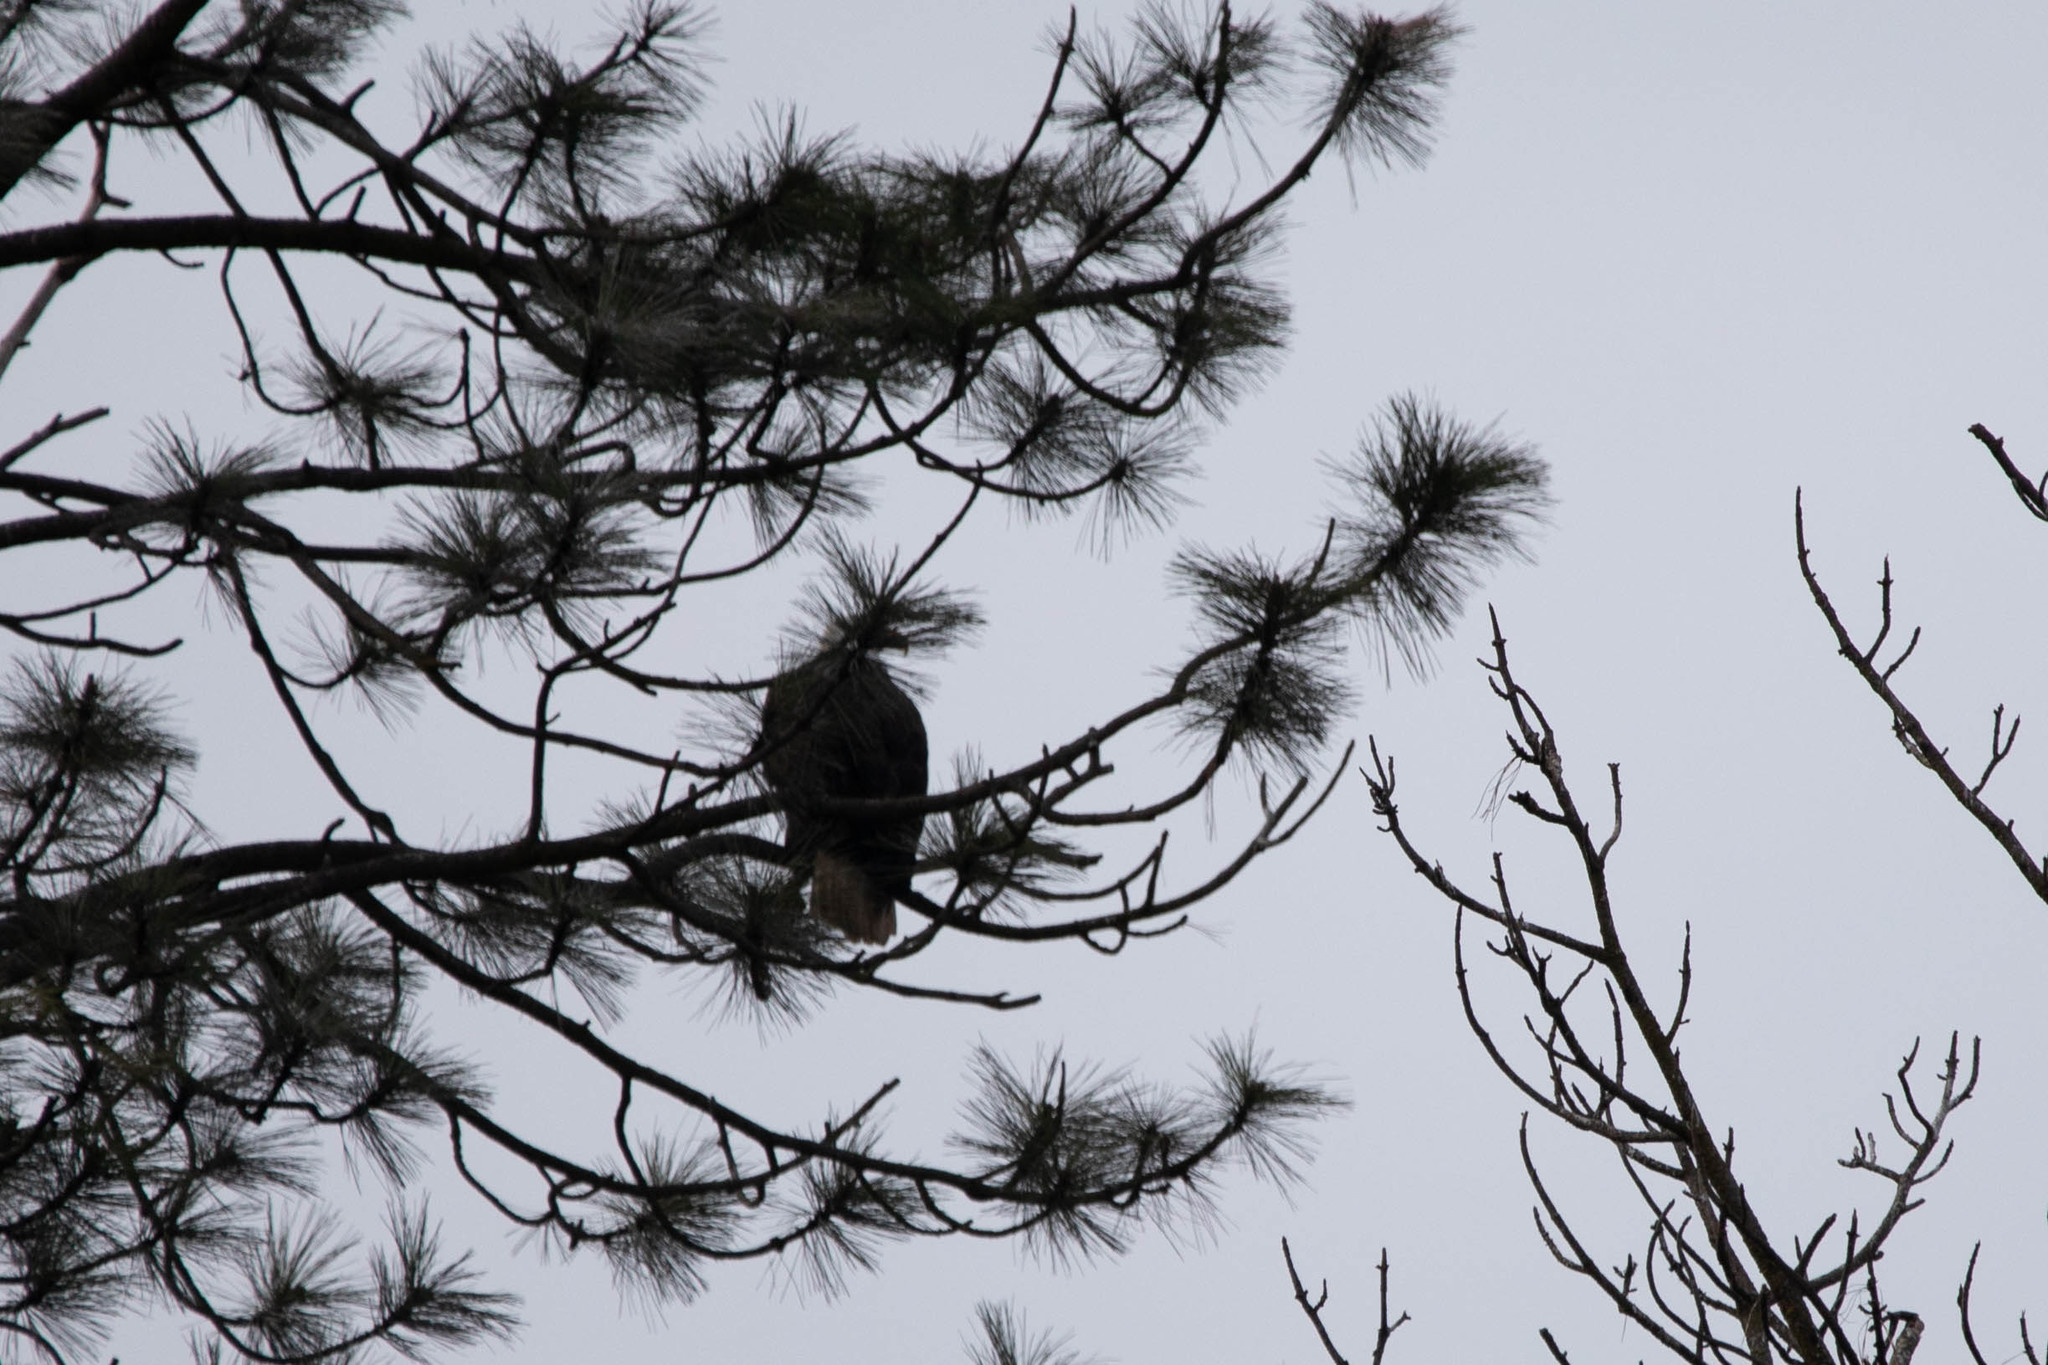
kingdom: Animalia
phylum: Chordata
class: Aves
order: Accipitriformes
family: Accipitridae
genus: Haliaeetus
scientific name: Haliaeetus leucocephalus
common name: Bald eagle
